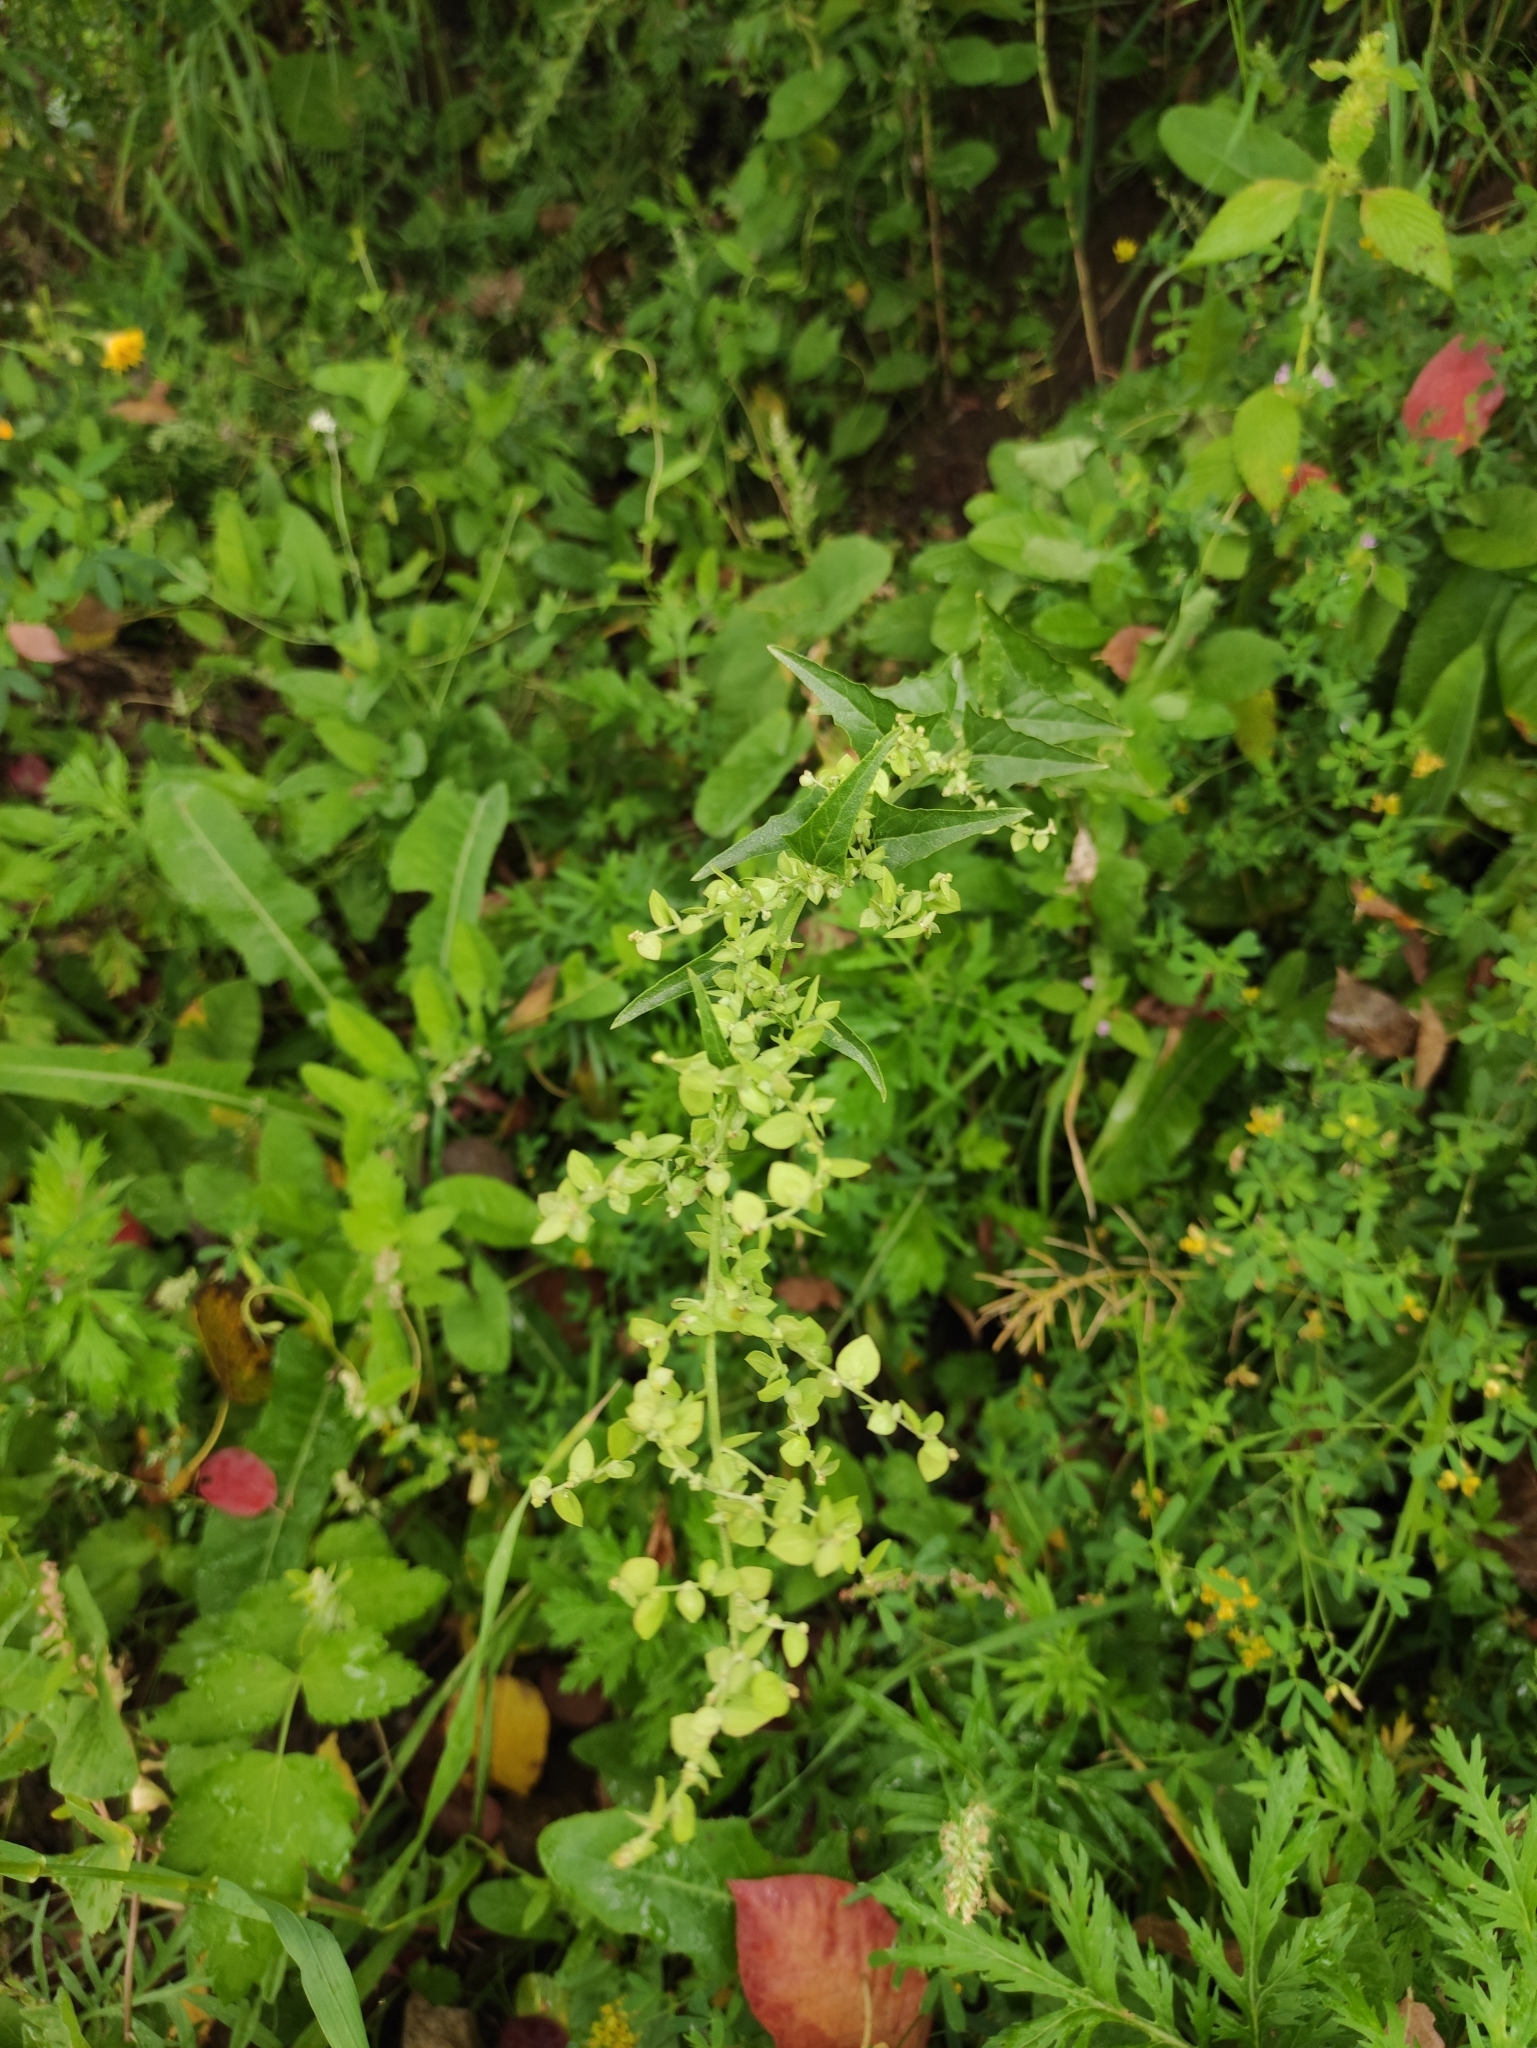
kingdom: Plantae
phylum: Tracheophyta
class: Magnoliopsida
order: Caryophyllales
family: Amaranthaceae
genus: Atriplex
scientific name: Atriplex sagittata
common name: Purple orache
